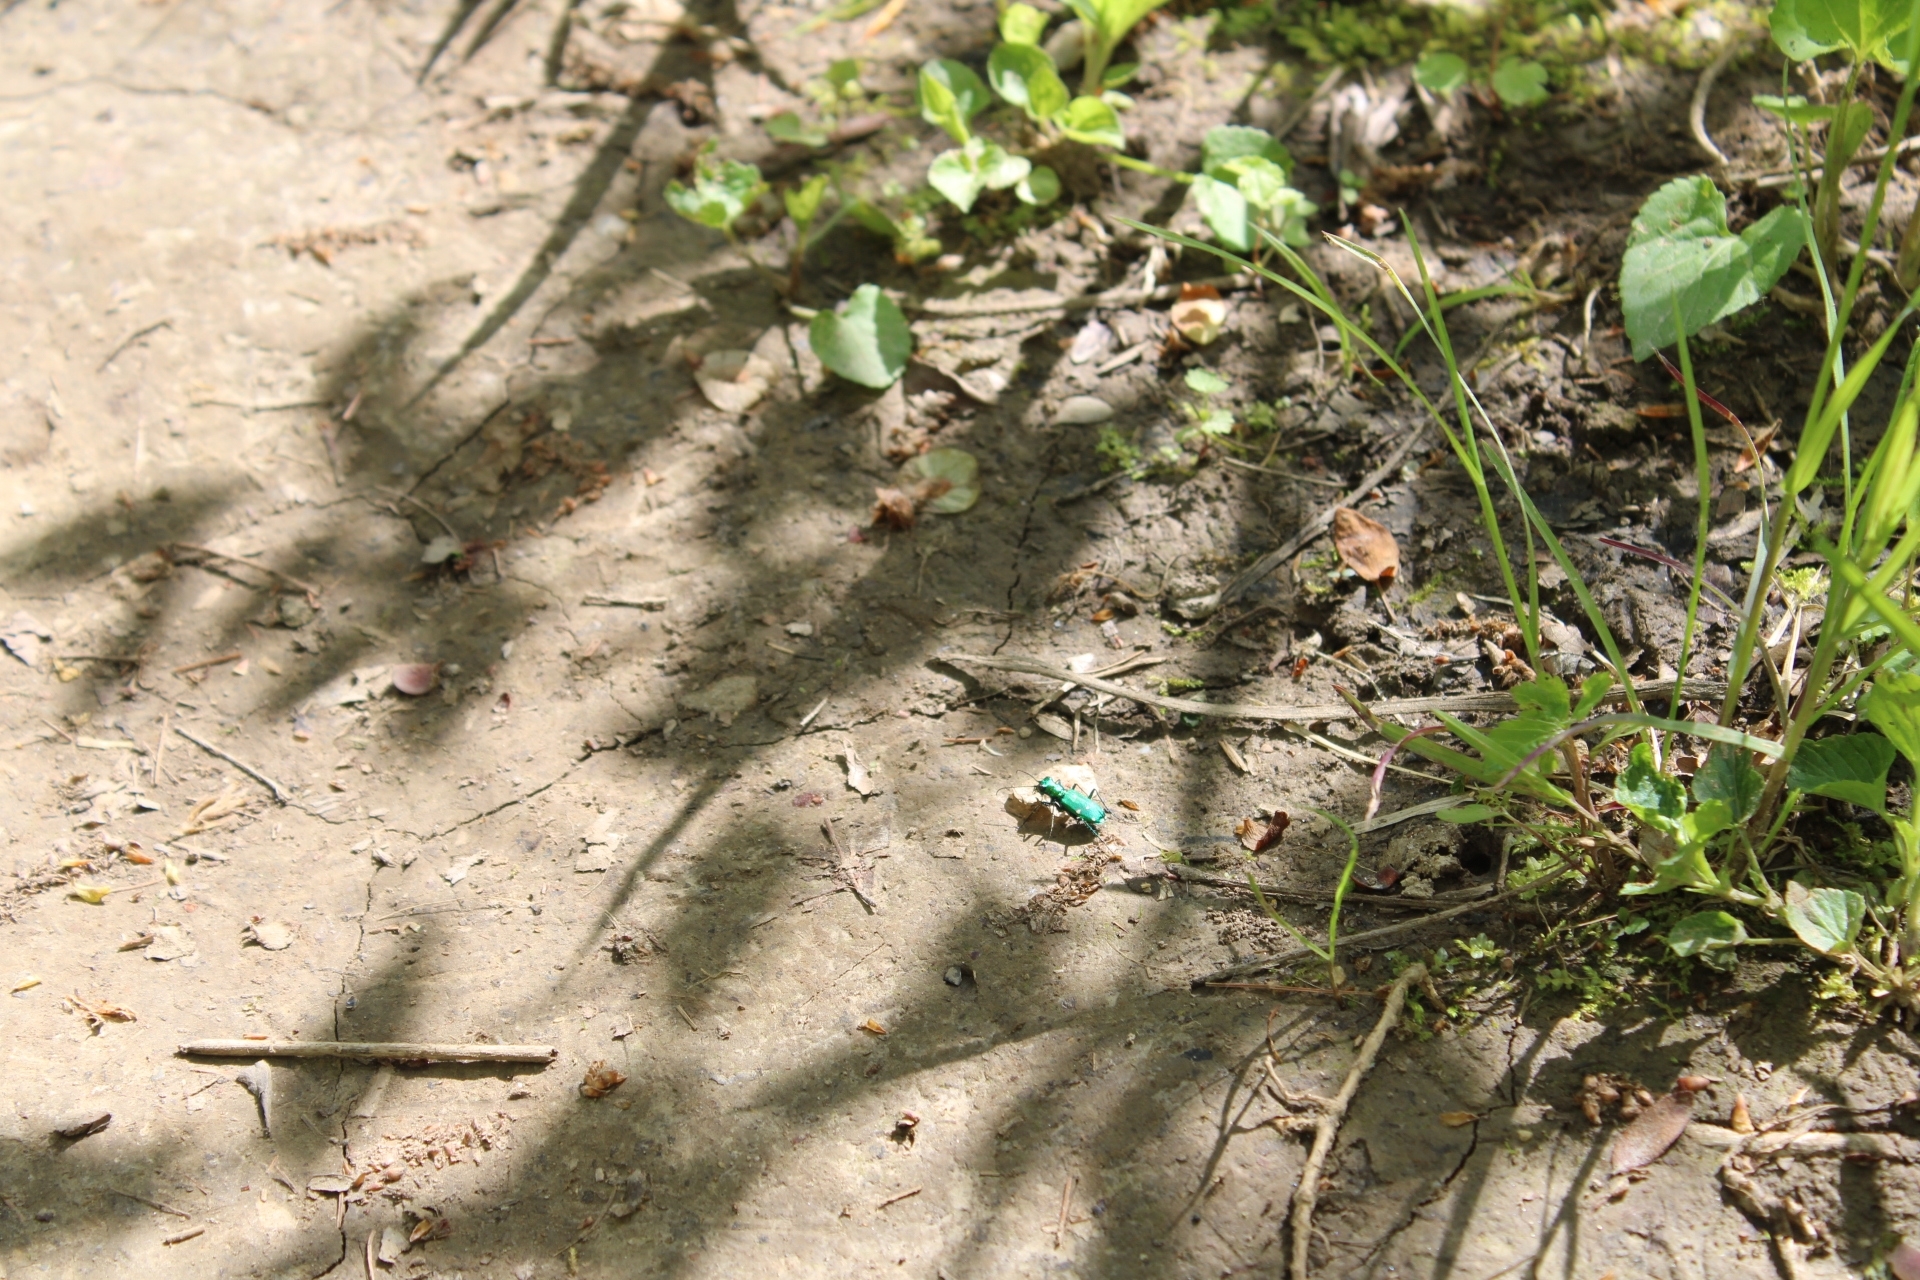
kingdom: Animalia
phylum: Arthropoda
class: Insecta
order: Coleoptera
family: Carabidae
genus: Cicindela
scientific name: Cicindela sexguttata
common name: Six-spotted tiger beetle
